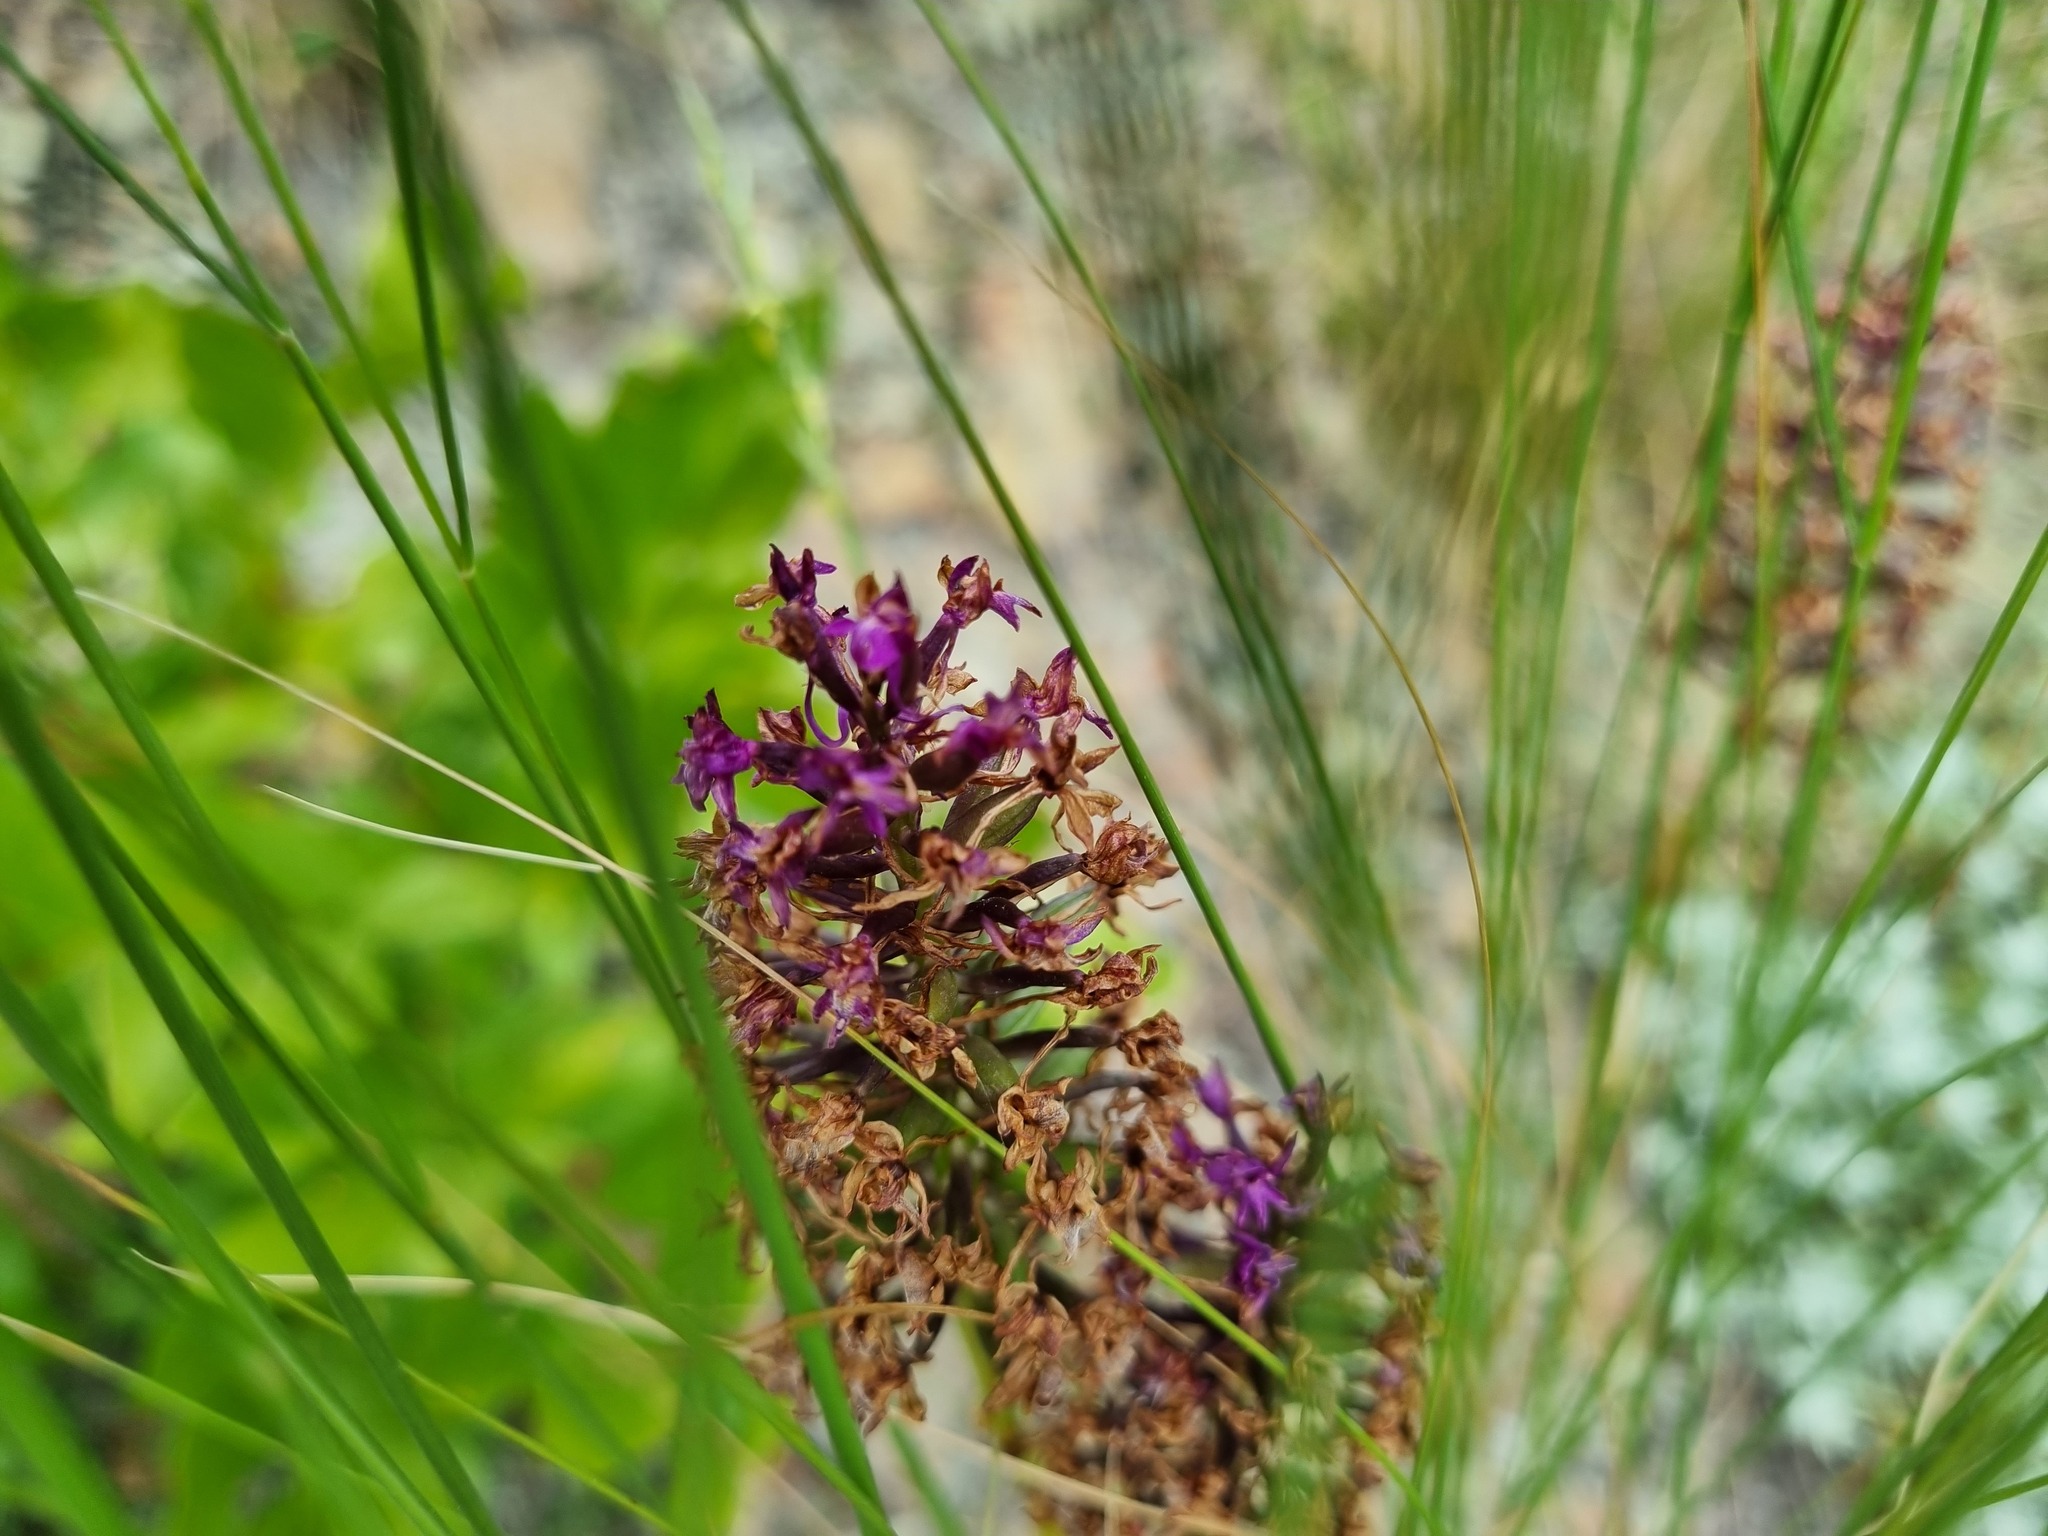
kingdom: Plantae
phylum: Tracheophyta
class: Liliopsida
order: Asparagales
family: Orchidaceae
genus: Anacamptis
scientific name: Anacamptis pyramidalis
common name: Pyramidal orchid
